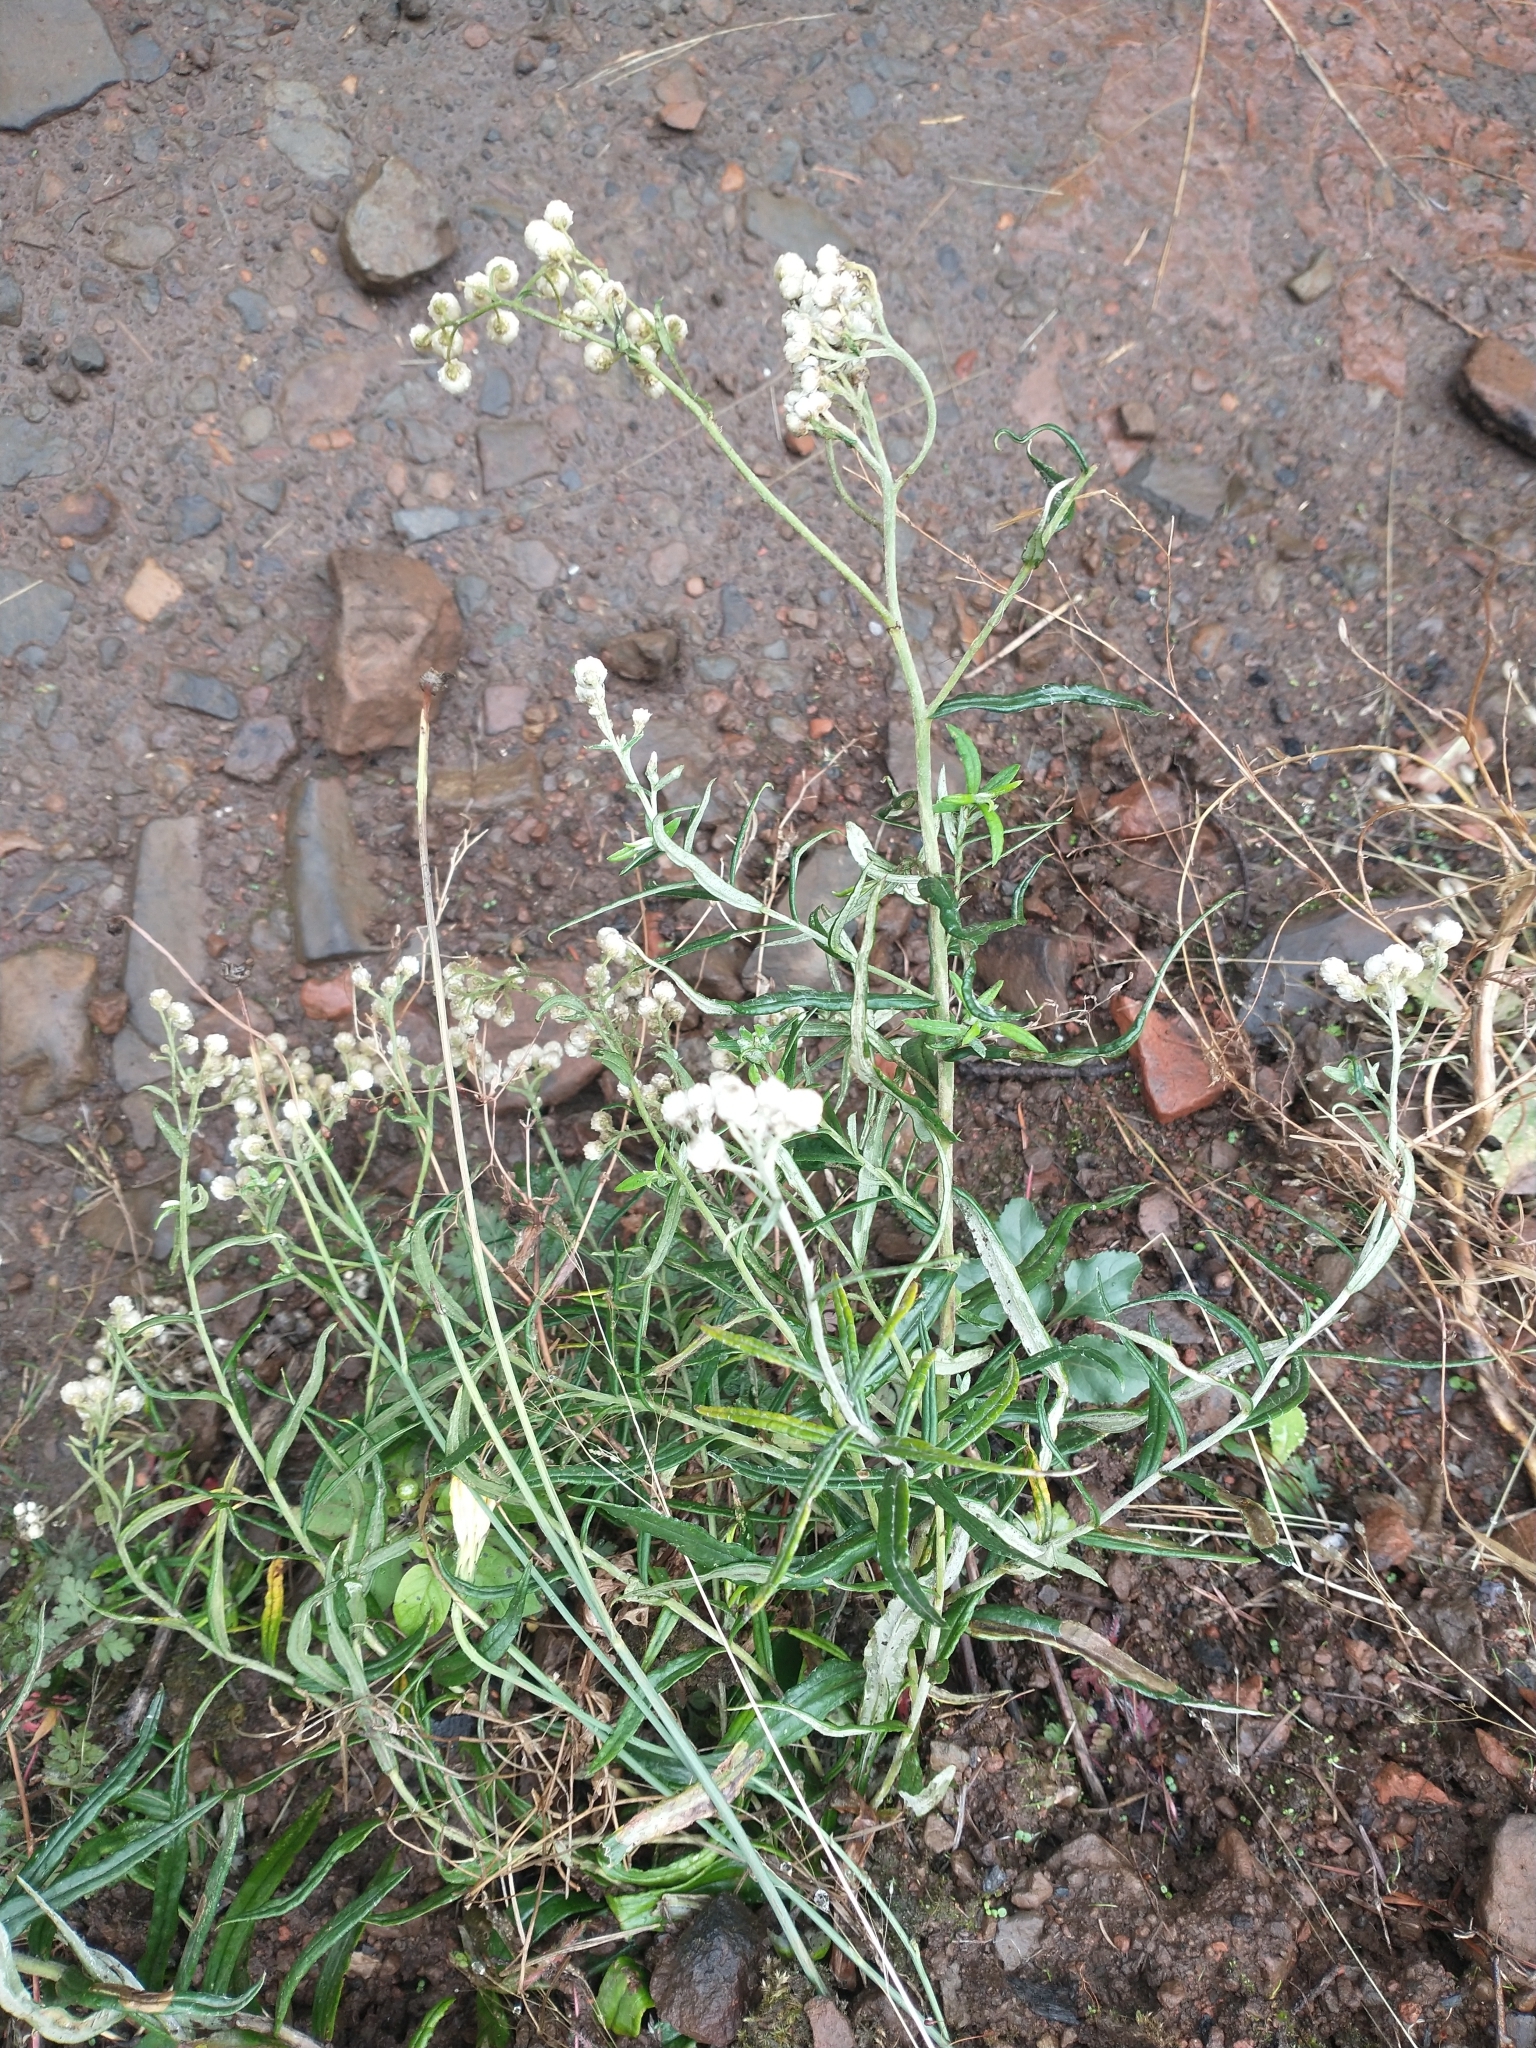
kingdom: Plantae
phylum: Tracheophyta
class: Magnoliopsida
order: Asterales
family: Asteraceae
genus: Anaphalis
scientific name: Anaphalis margaritacea
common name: Pearly everlasting
